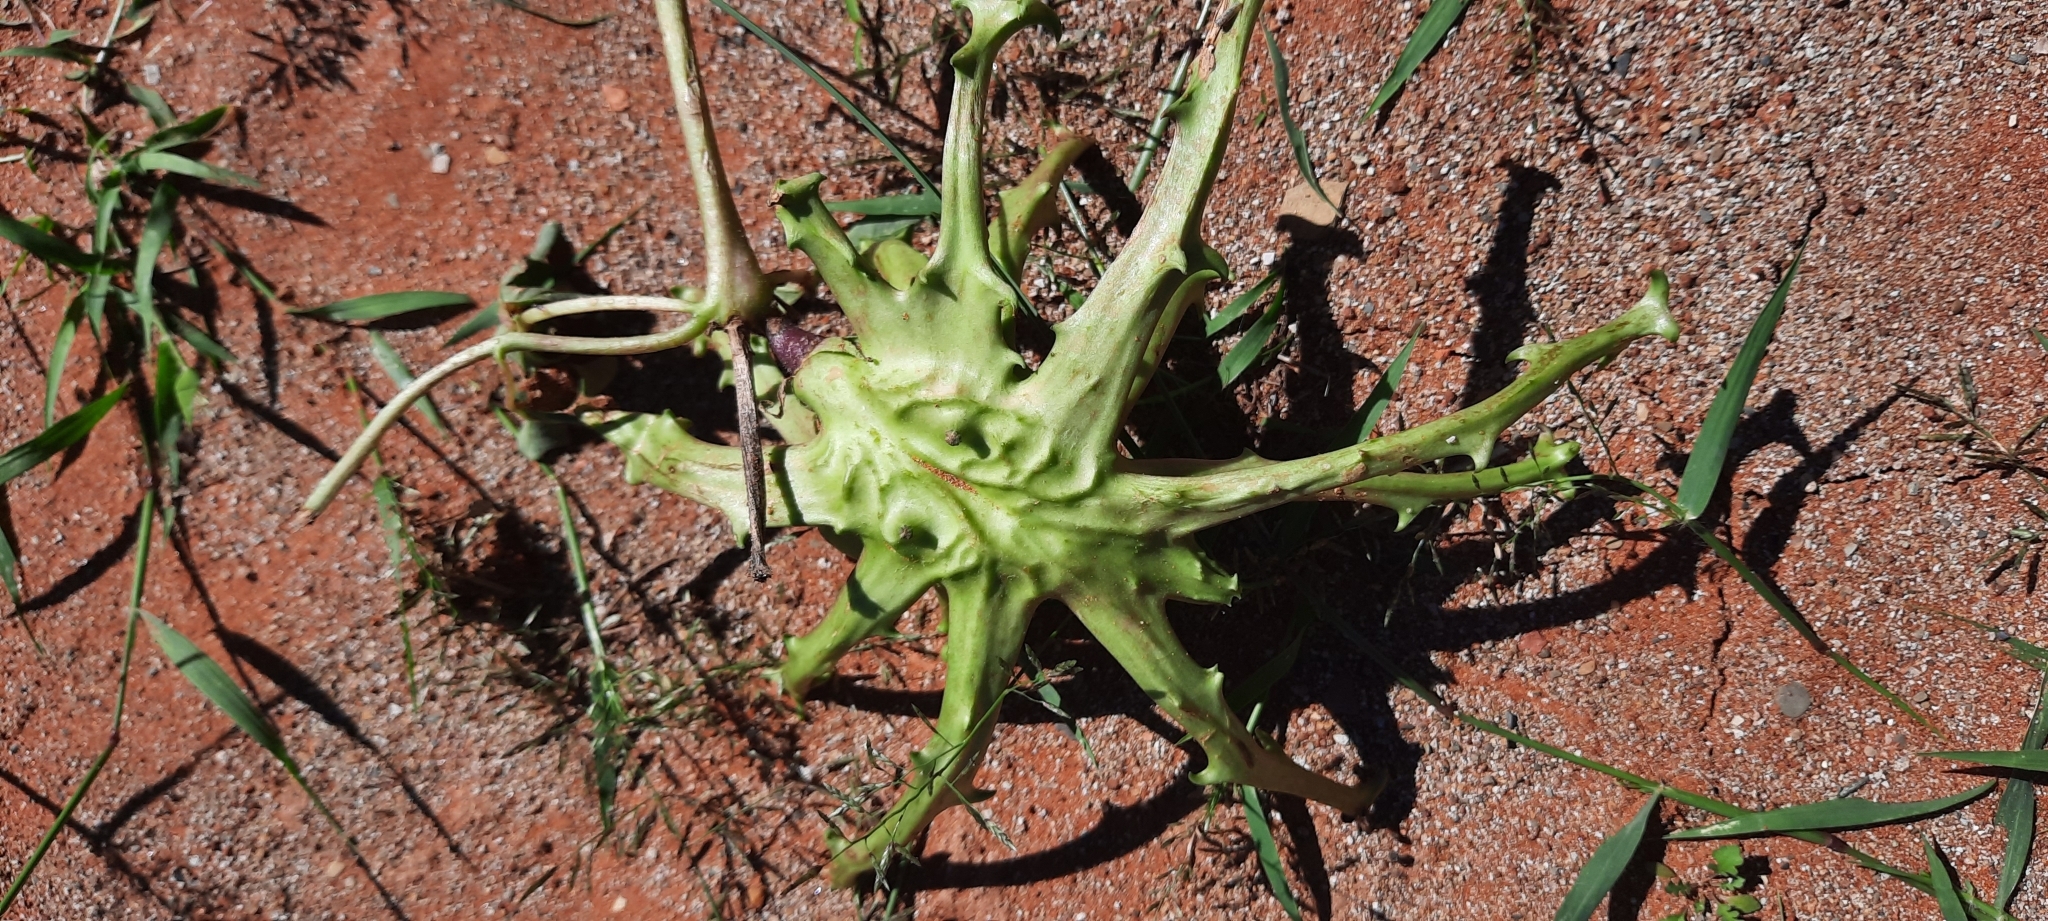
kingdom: Plantae
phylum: Tracheophyta
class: Magnoliopsida
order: Lamiales
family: Pedaliaceae
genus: Harpagophytum
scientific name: Harpagophytum zeyheri
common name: Grappleplant
